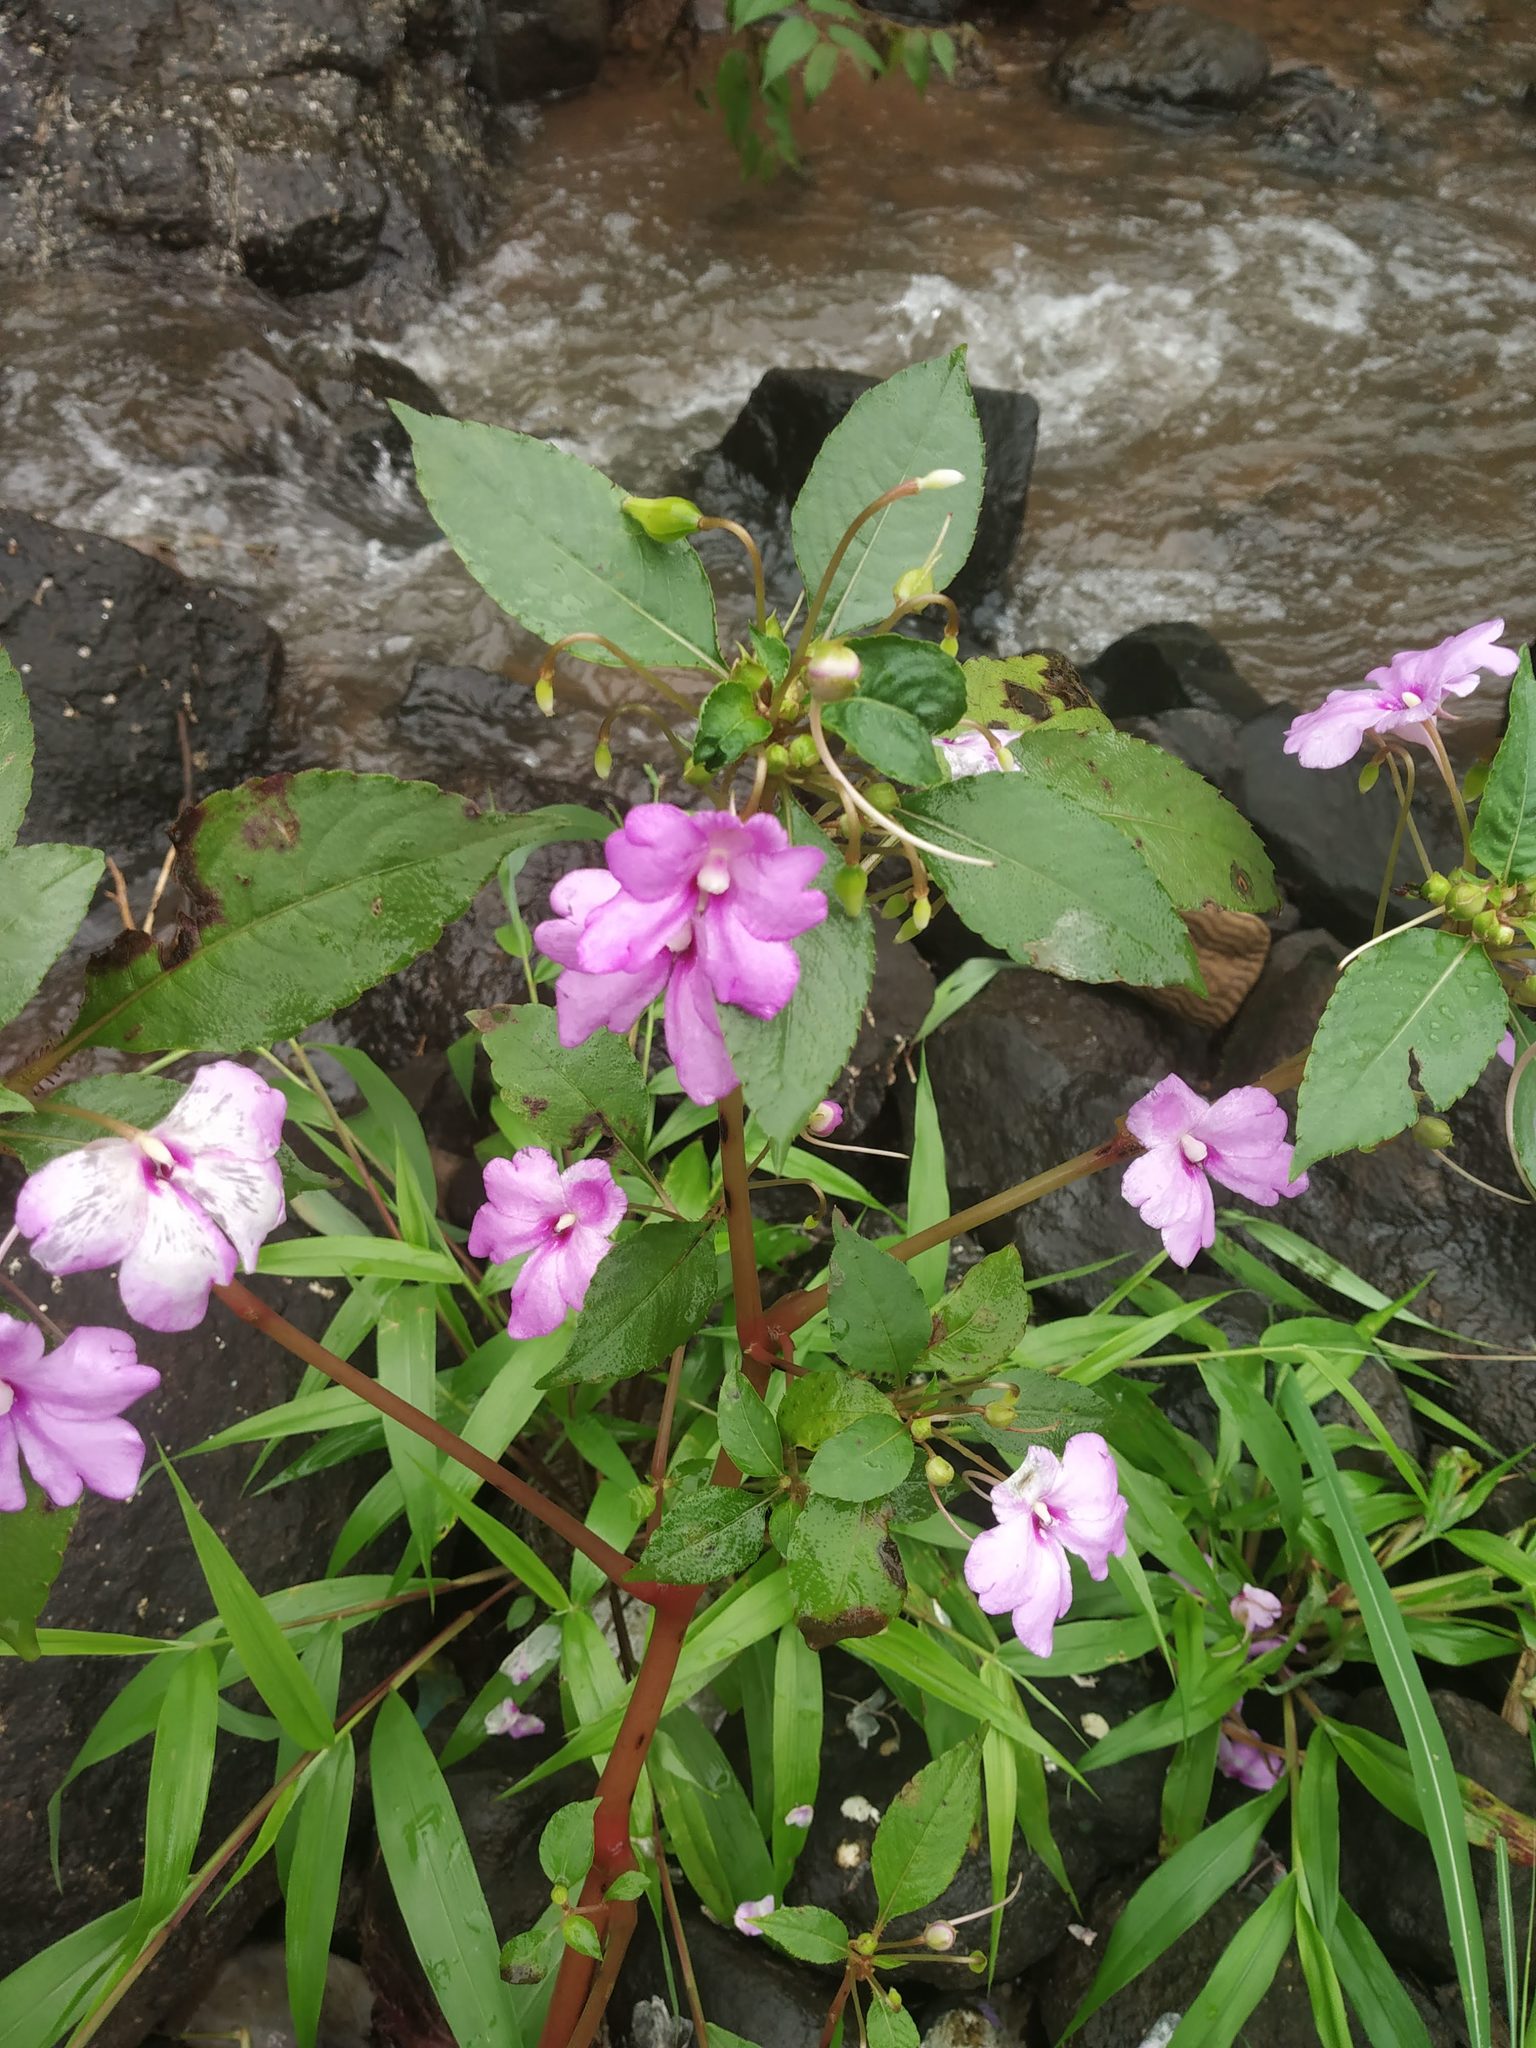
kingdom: Plantae
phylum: Tracheophyta
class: Magnoliopsida
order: Ericales
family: Balsaminaceae
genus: Impatiens
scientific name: Impatiens pulcherrima
